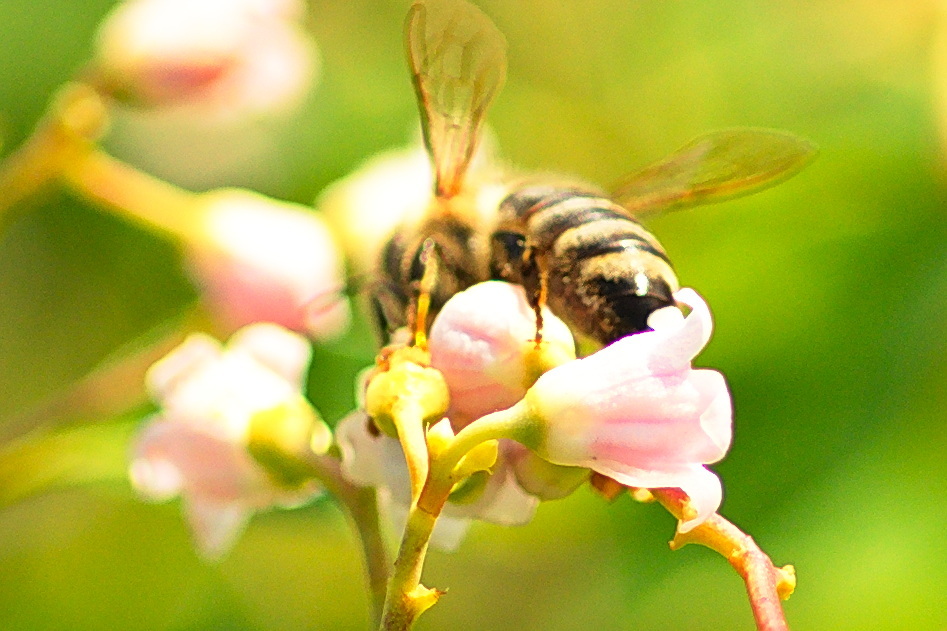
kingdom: Animalia
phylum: Arthropoda
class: Insecta
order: Hymenoptera
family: Apidae
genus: Apis
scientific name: Apis mellifera
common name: Honey bee
